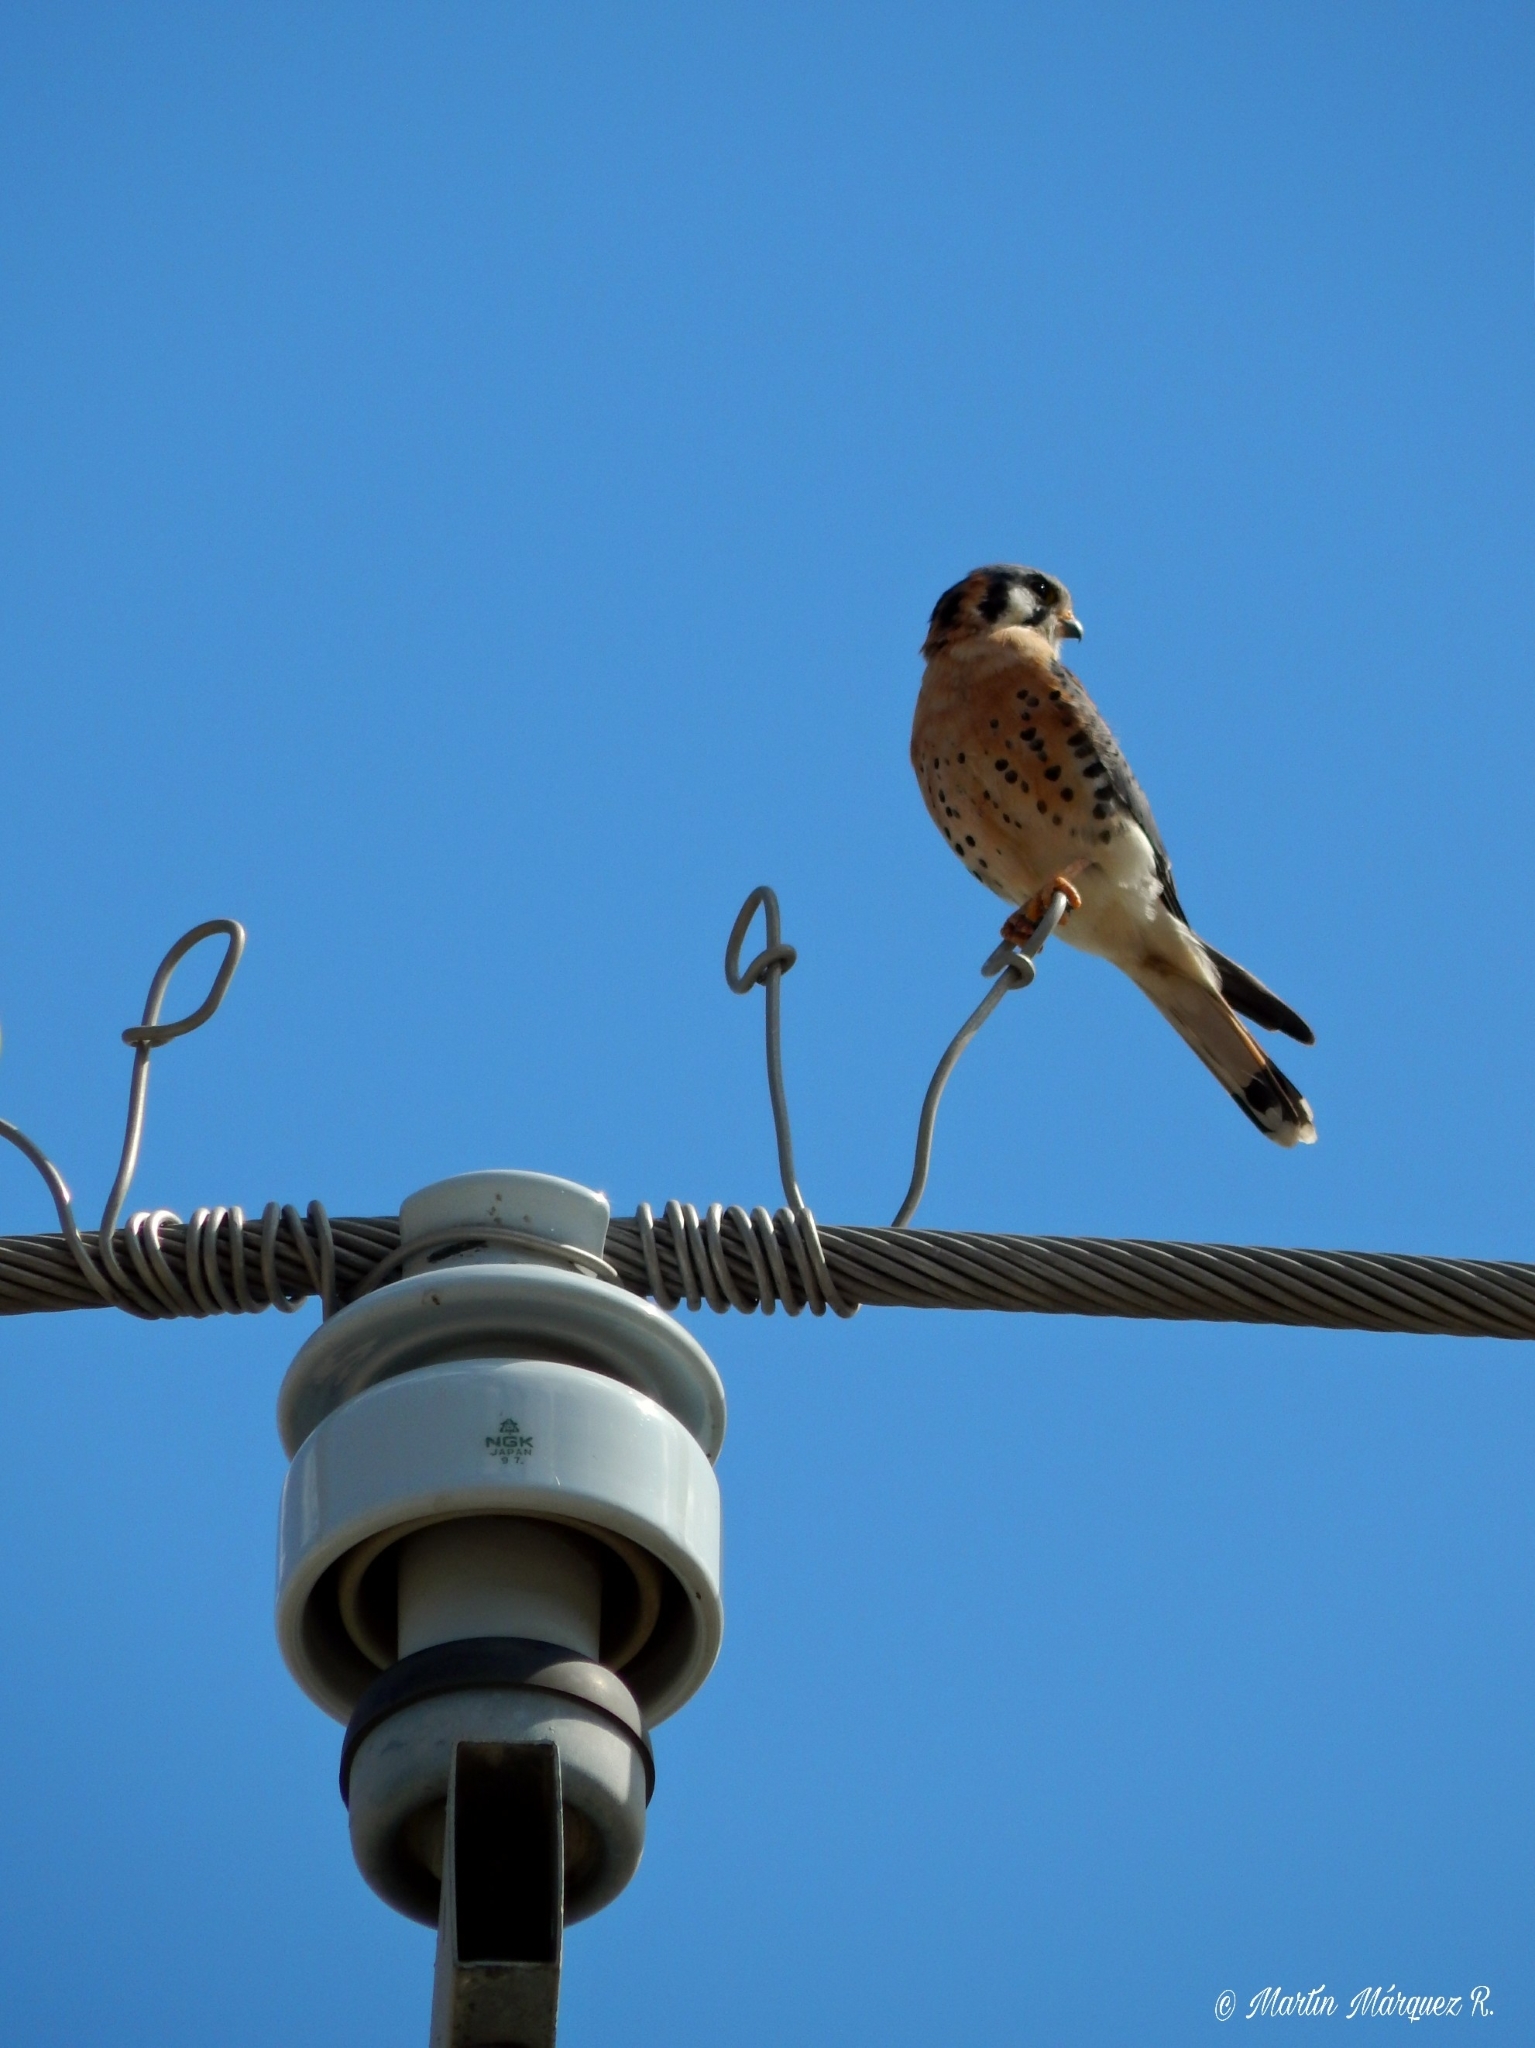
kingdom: Animalia
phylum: Chordata
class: Aves
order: Falconiformes
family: Falconidae
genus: Falco
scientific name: Falco sparverius
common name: American kestrel
